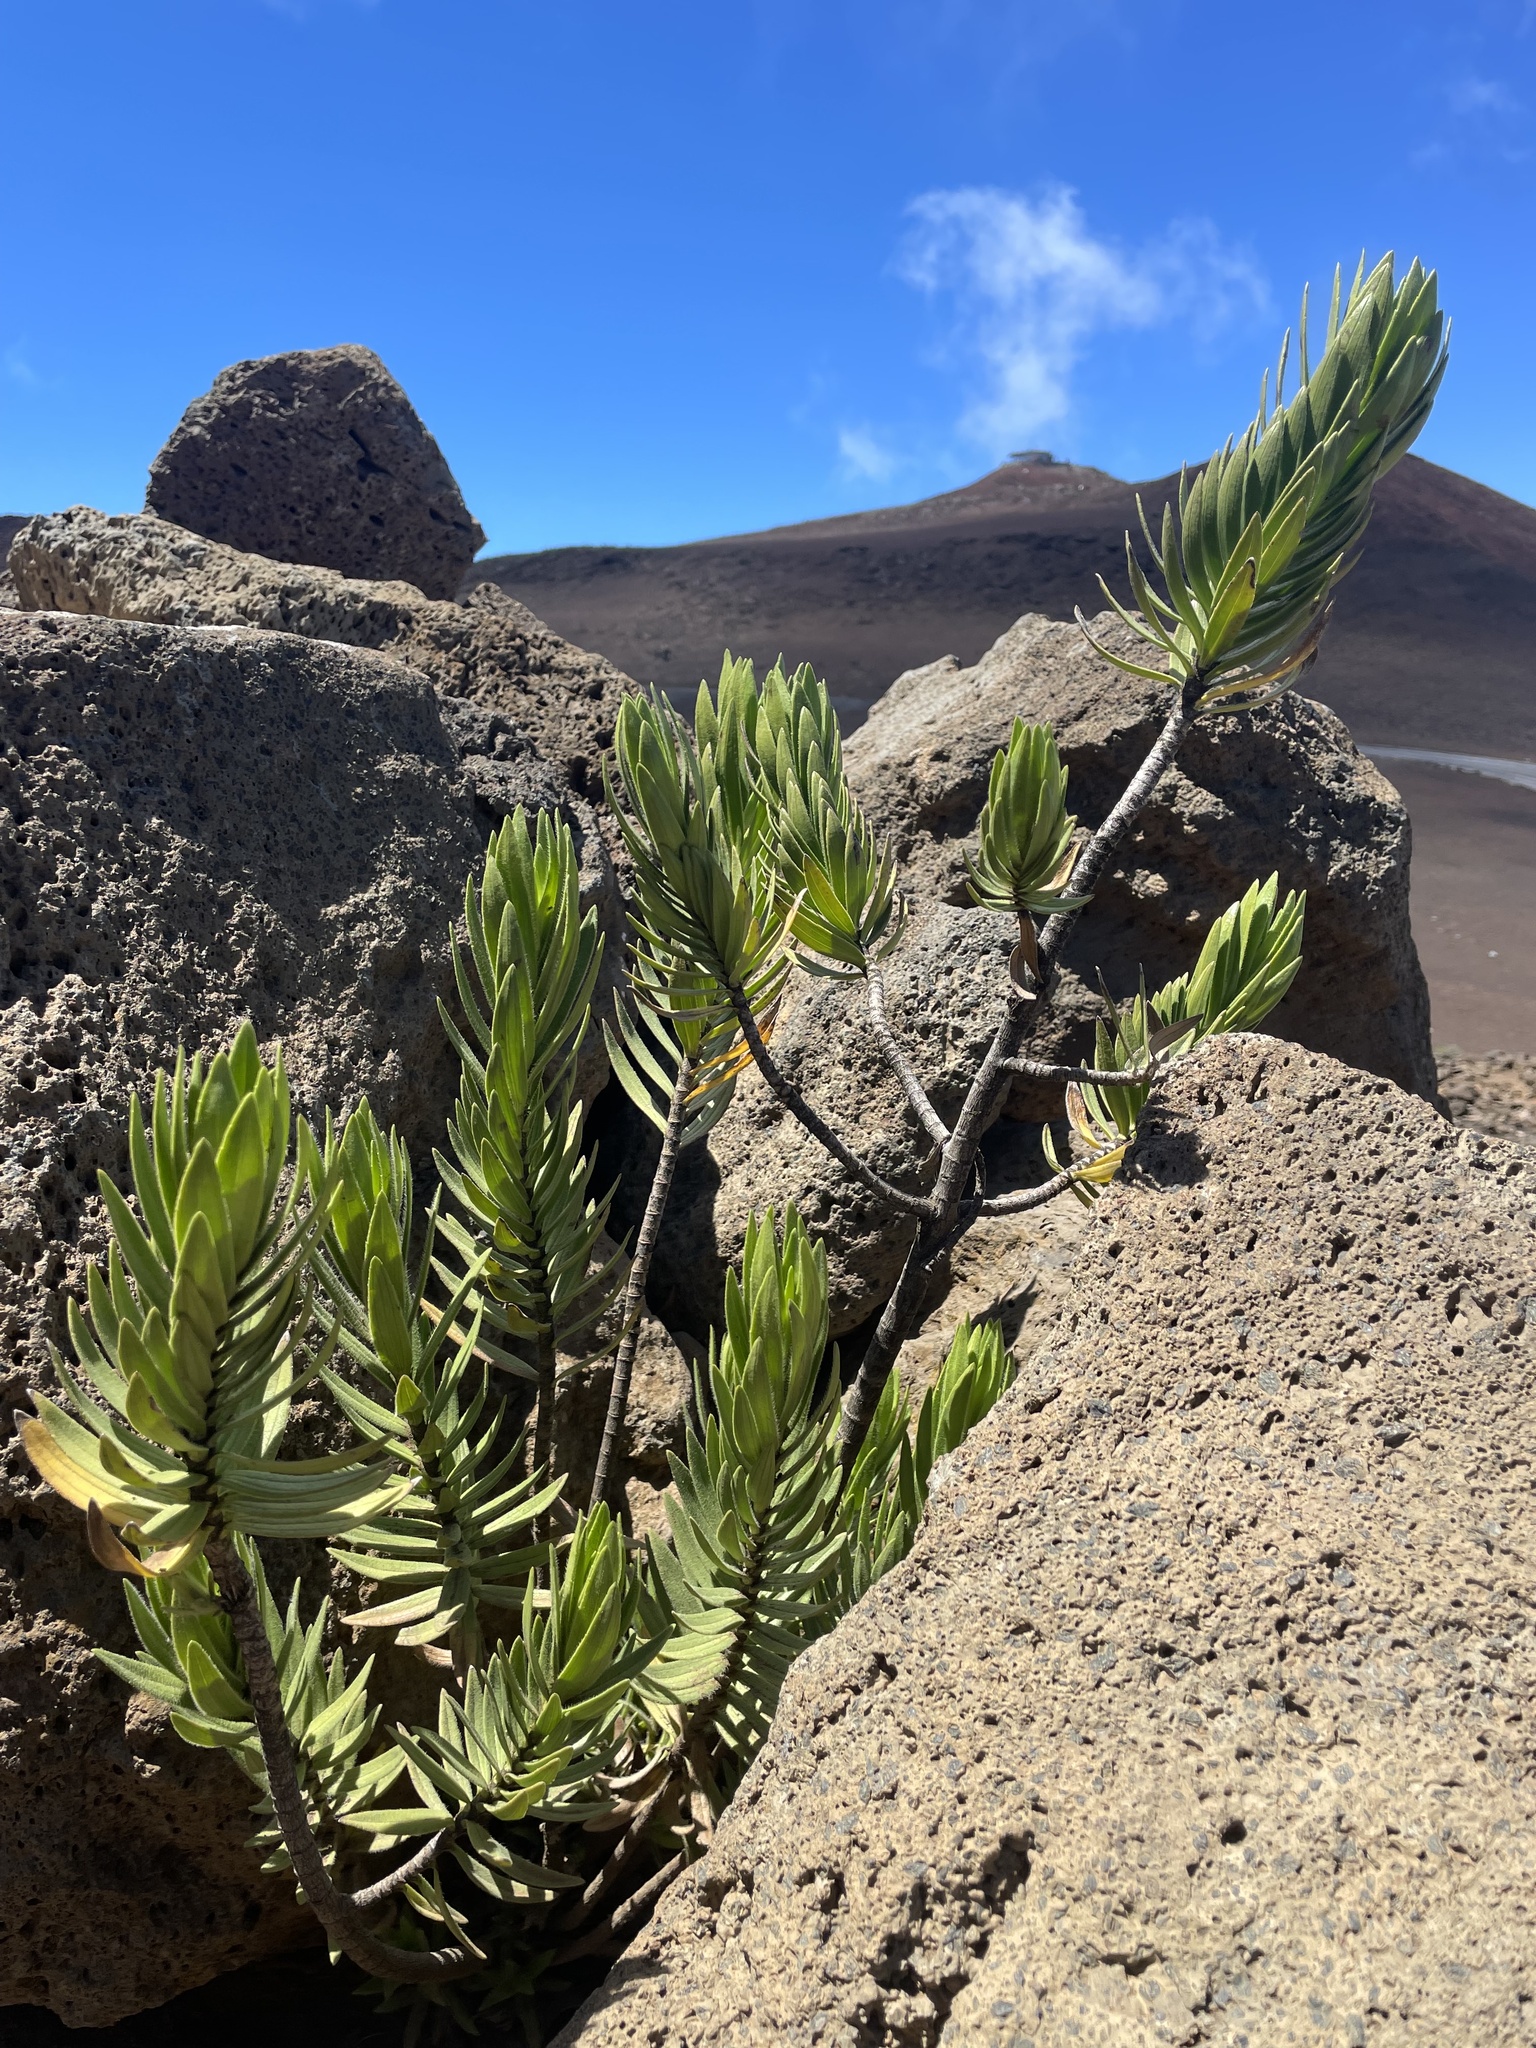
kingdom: Plantae
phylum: Tracheophyta
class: Magnoliopsida
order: Asterales
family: Asteraceae
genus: Dubautia
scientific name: Dubautia menziesii
